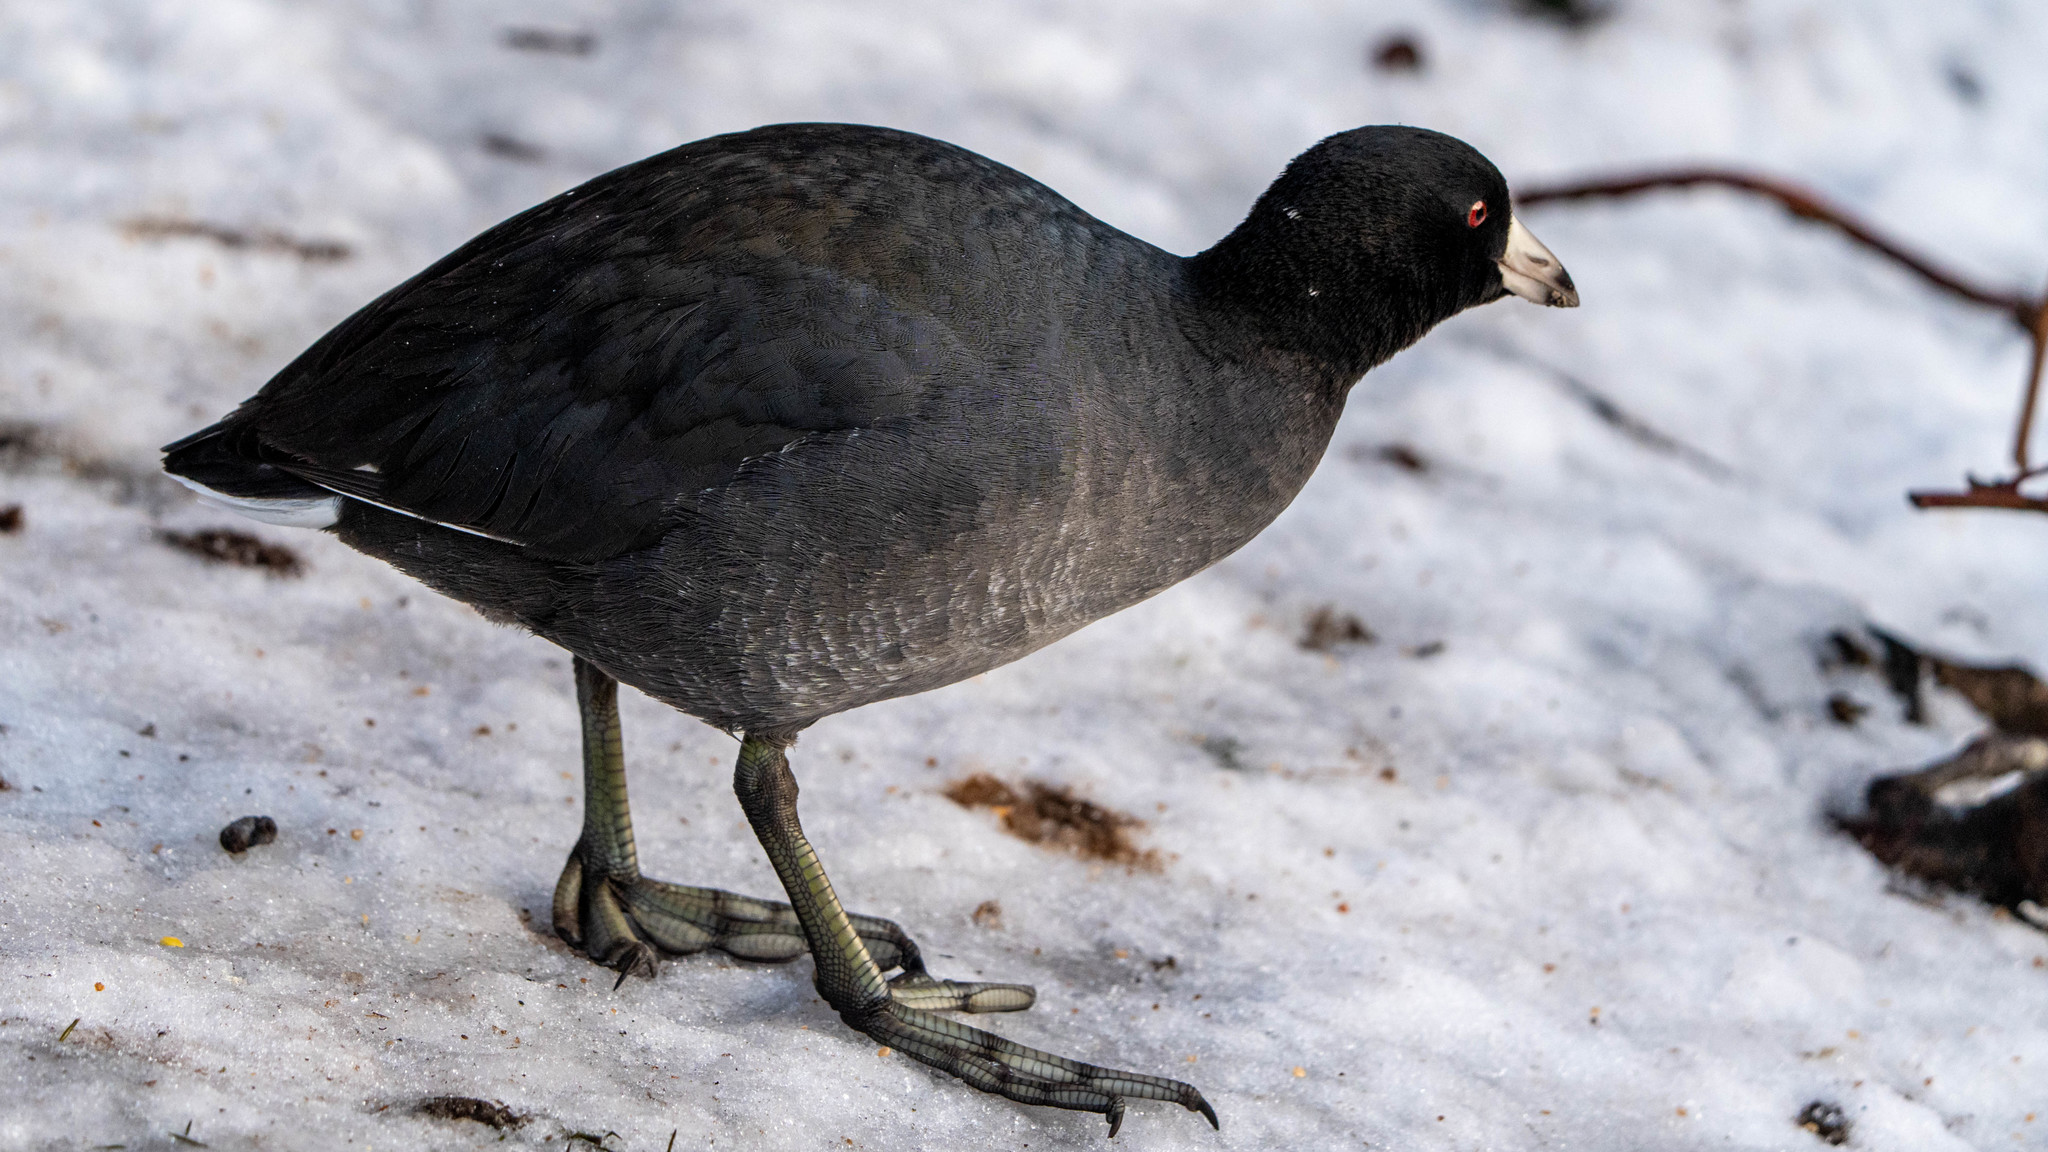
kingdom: Animalia
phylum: Chordata
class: Aves
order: Gruiformes
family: Rallidae
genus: Fulica
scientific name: Fulica americana
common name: American coot
